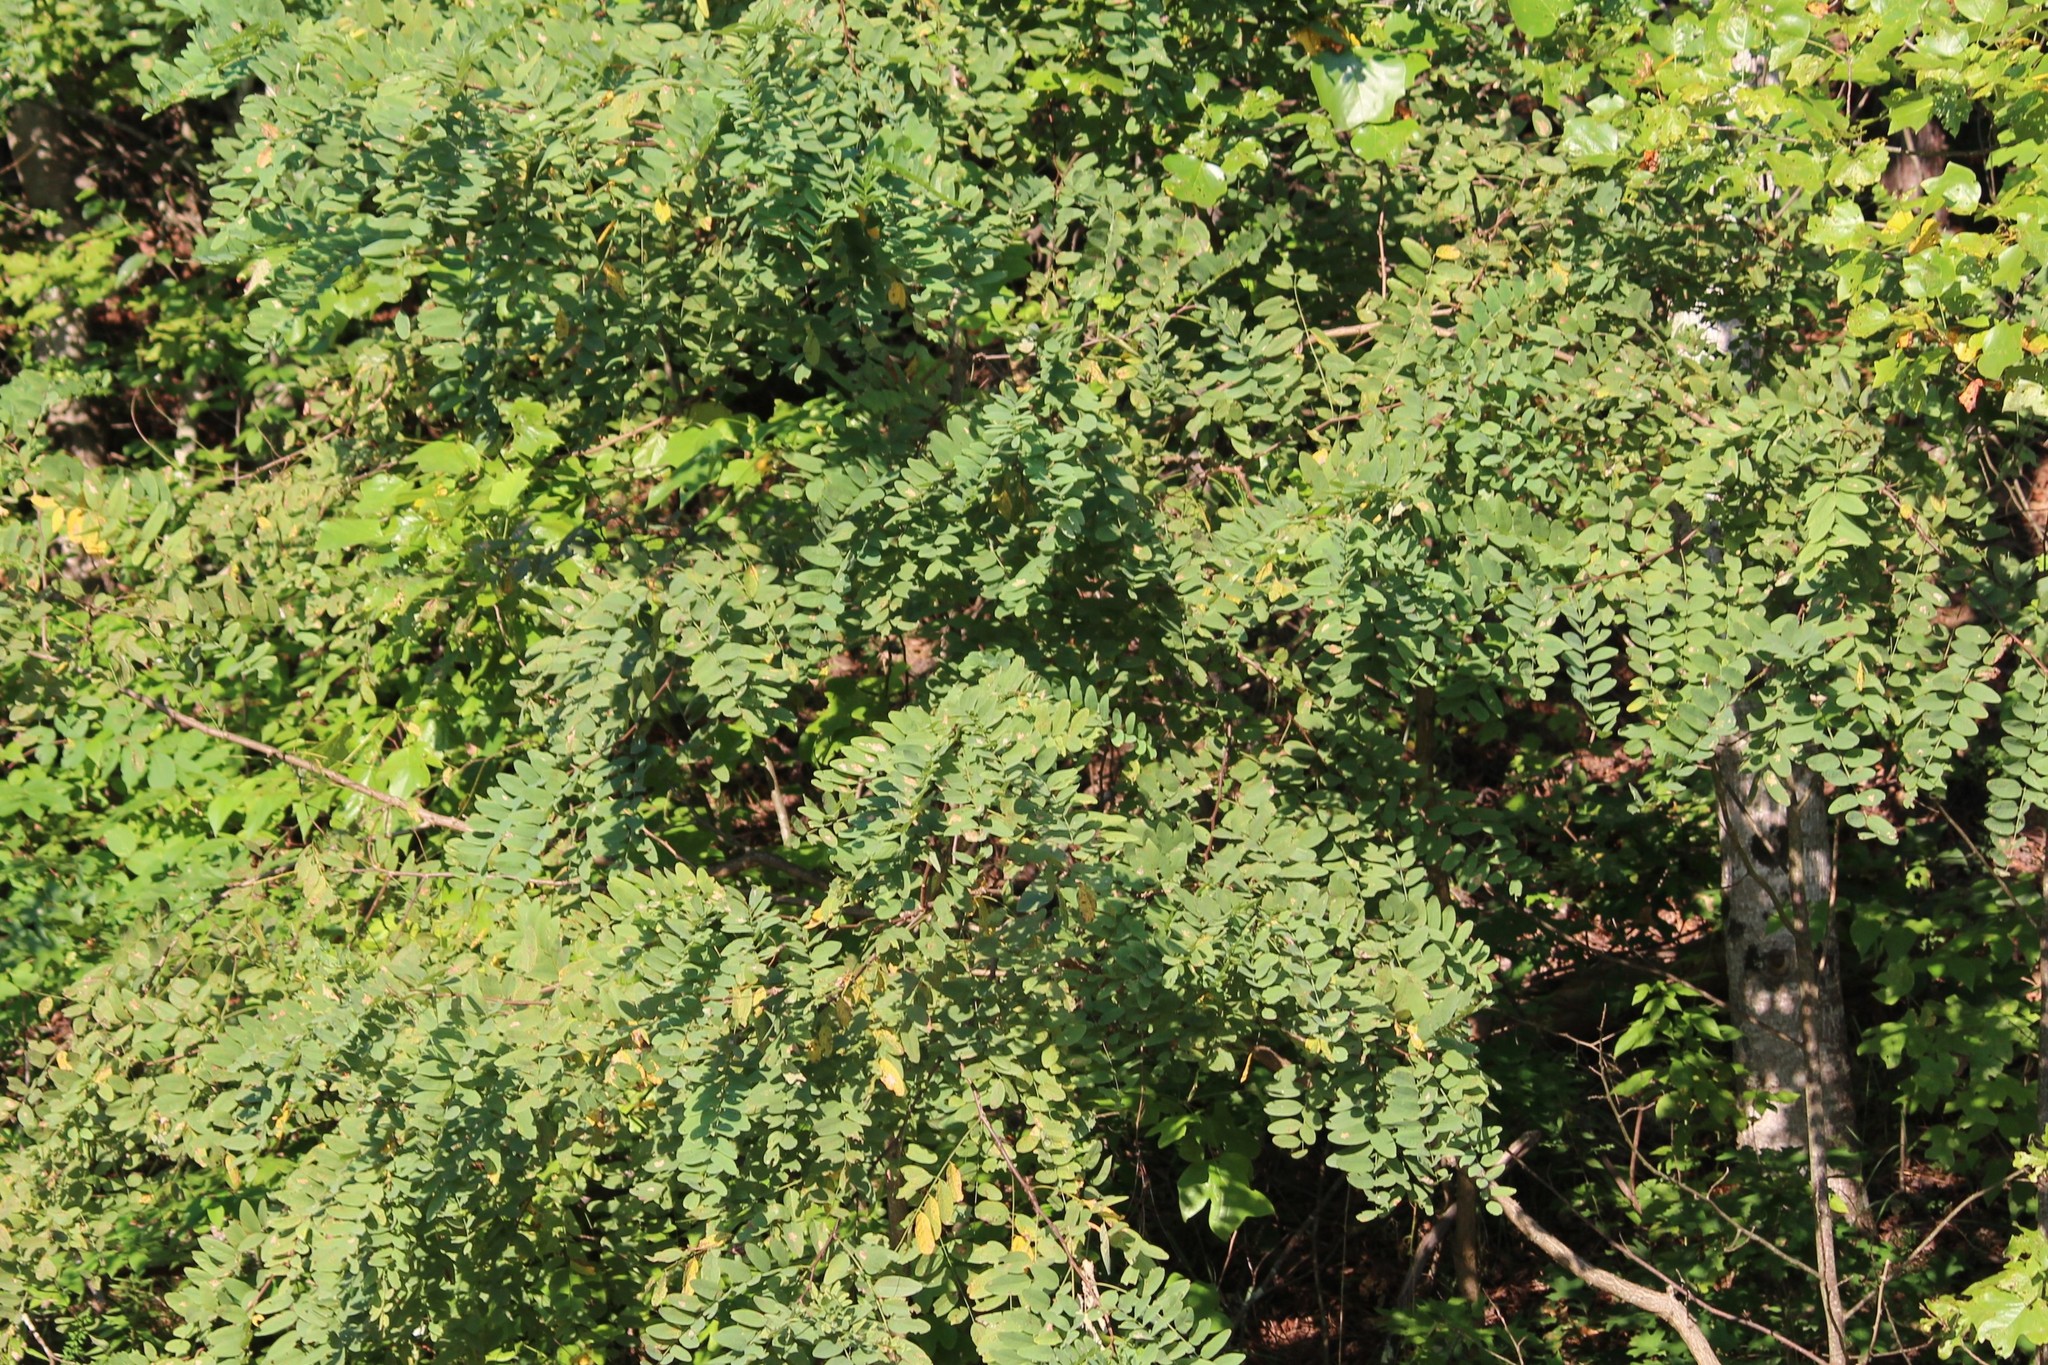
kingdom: Plantae
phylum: Tracheophyta
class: Magnoliopsida
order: Fabales
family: Fabaceae
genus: Robinia
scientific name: Robinia pseudoacacia
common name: Black locust
